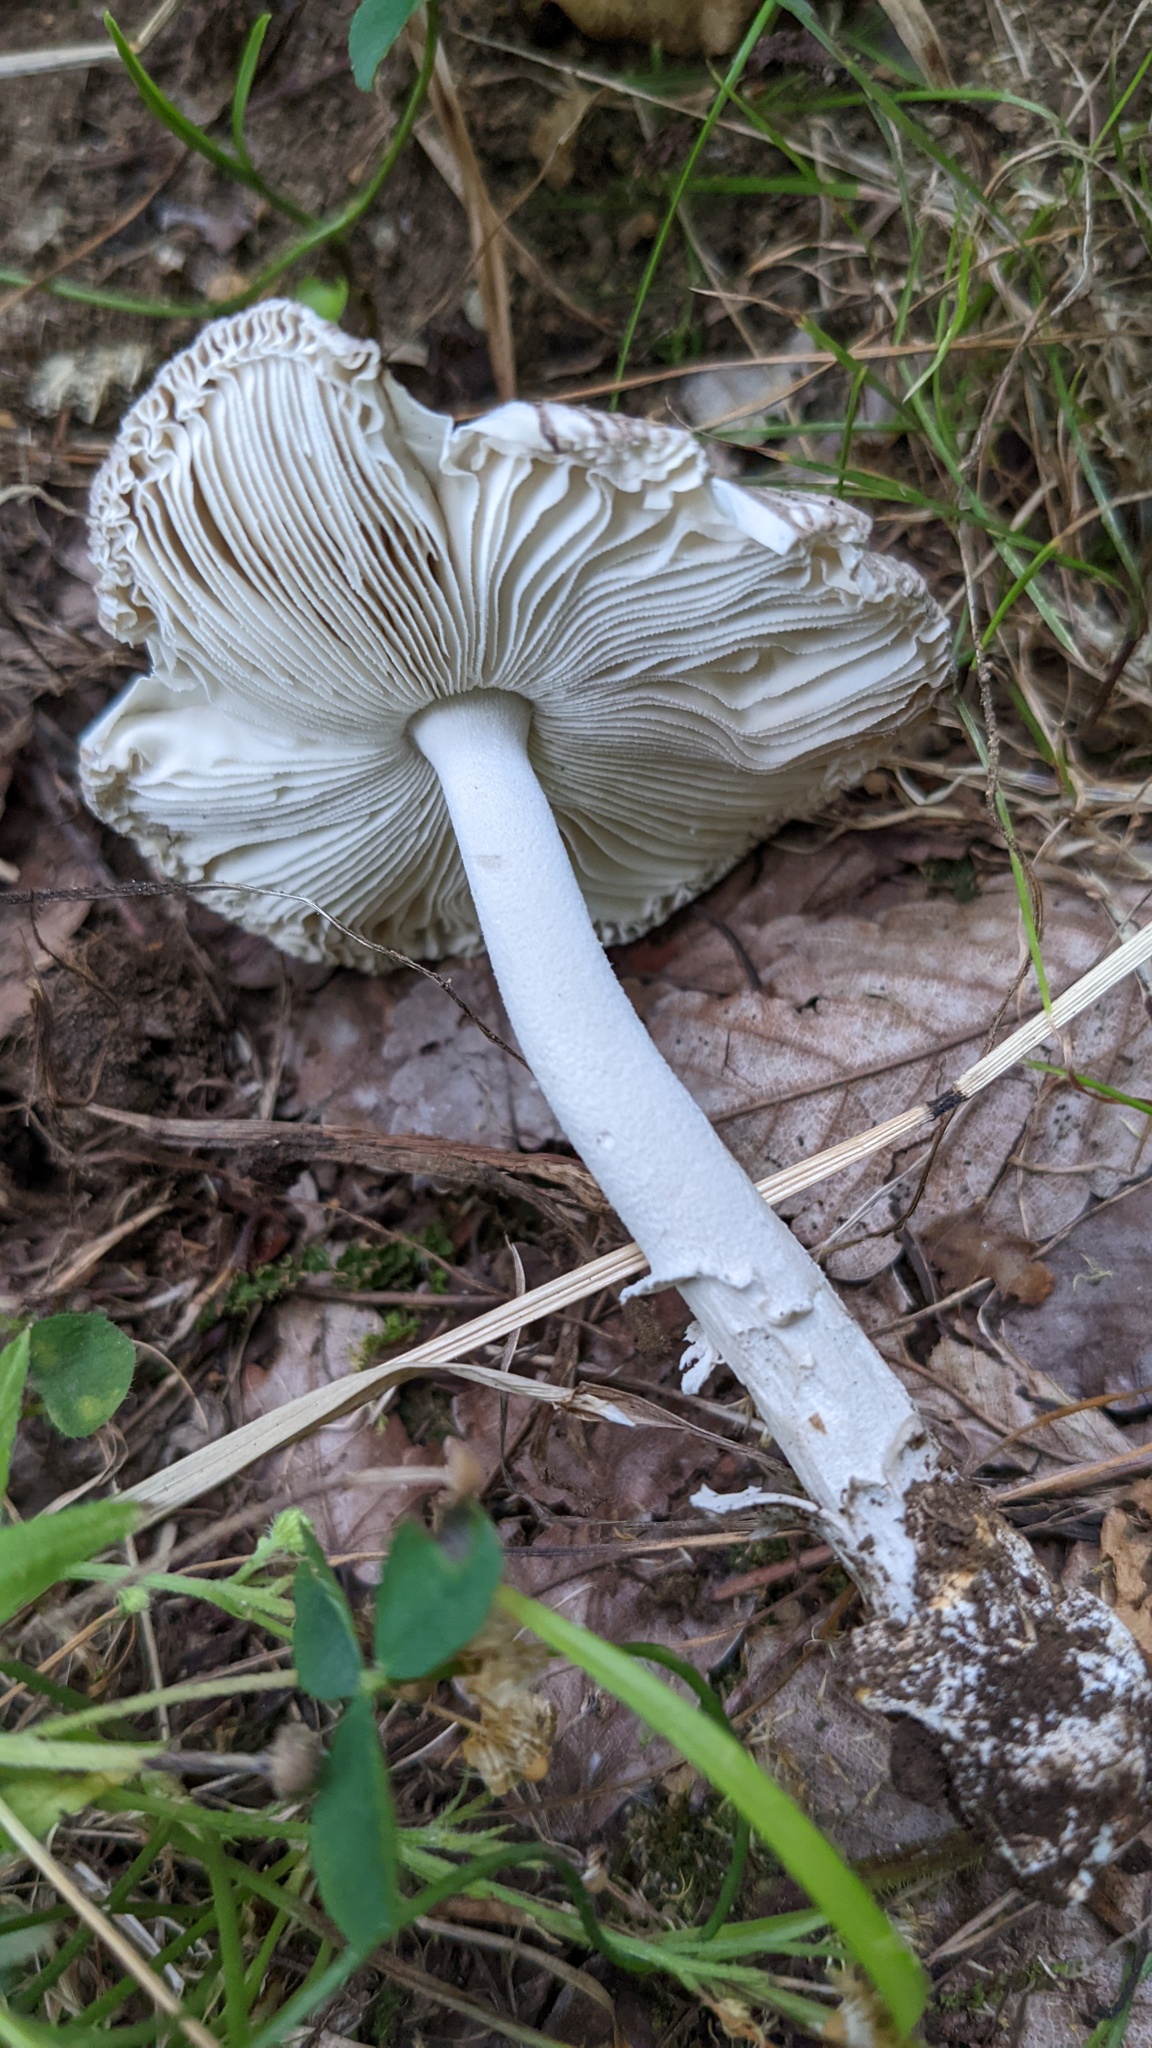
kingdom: Fungi
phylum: Basidiomycota
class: Agaricomycetes
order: Agaricales
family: Amanitaceae
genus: Amanita
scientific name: Amanita vaginata
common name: Grisette
